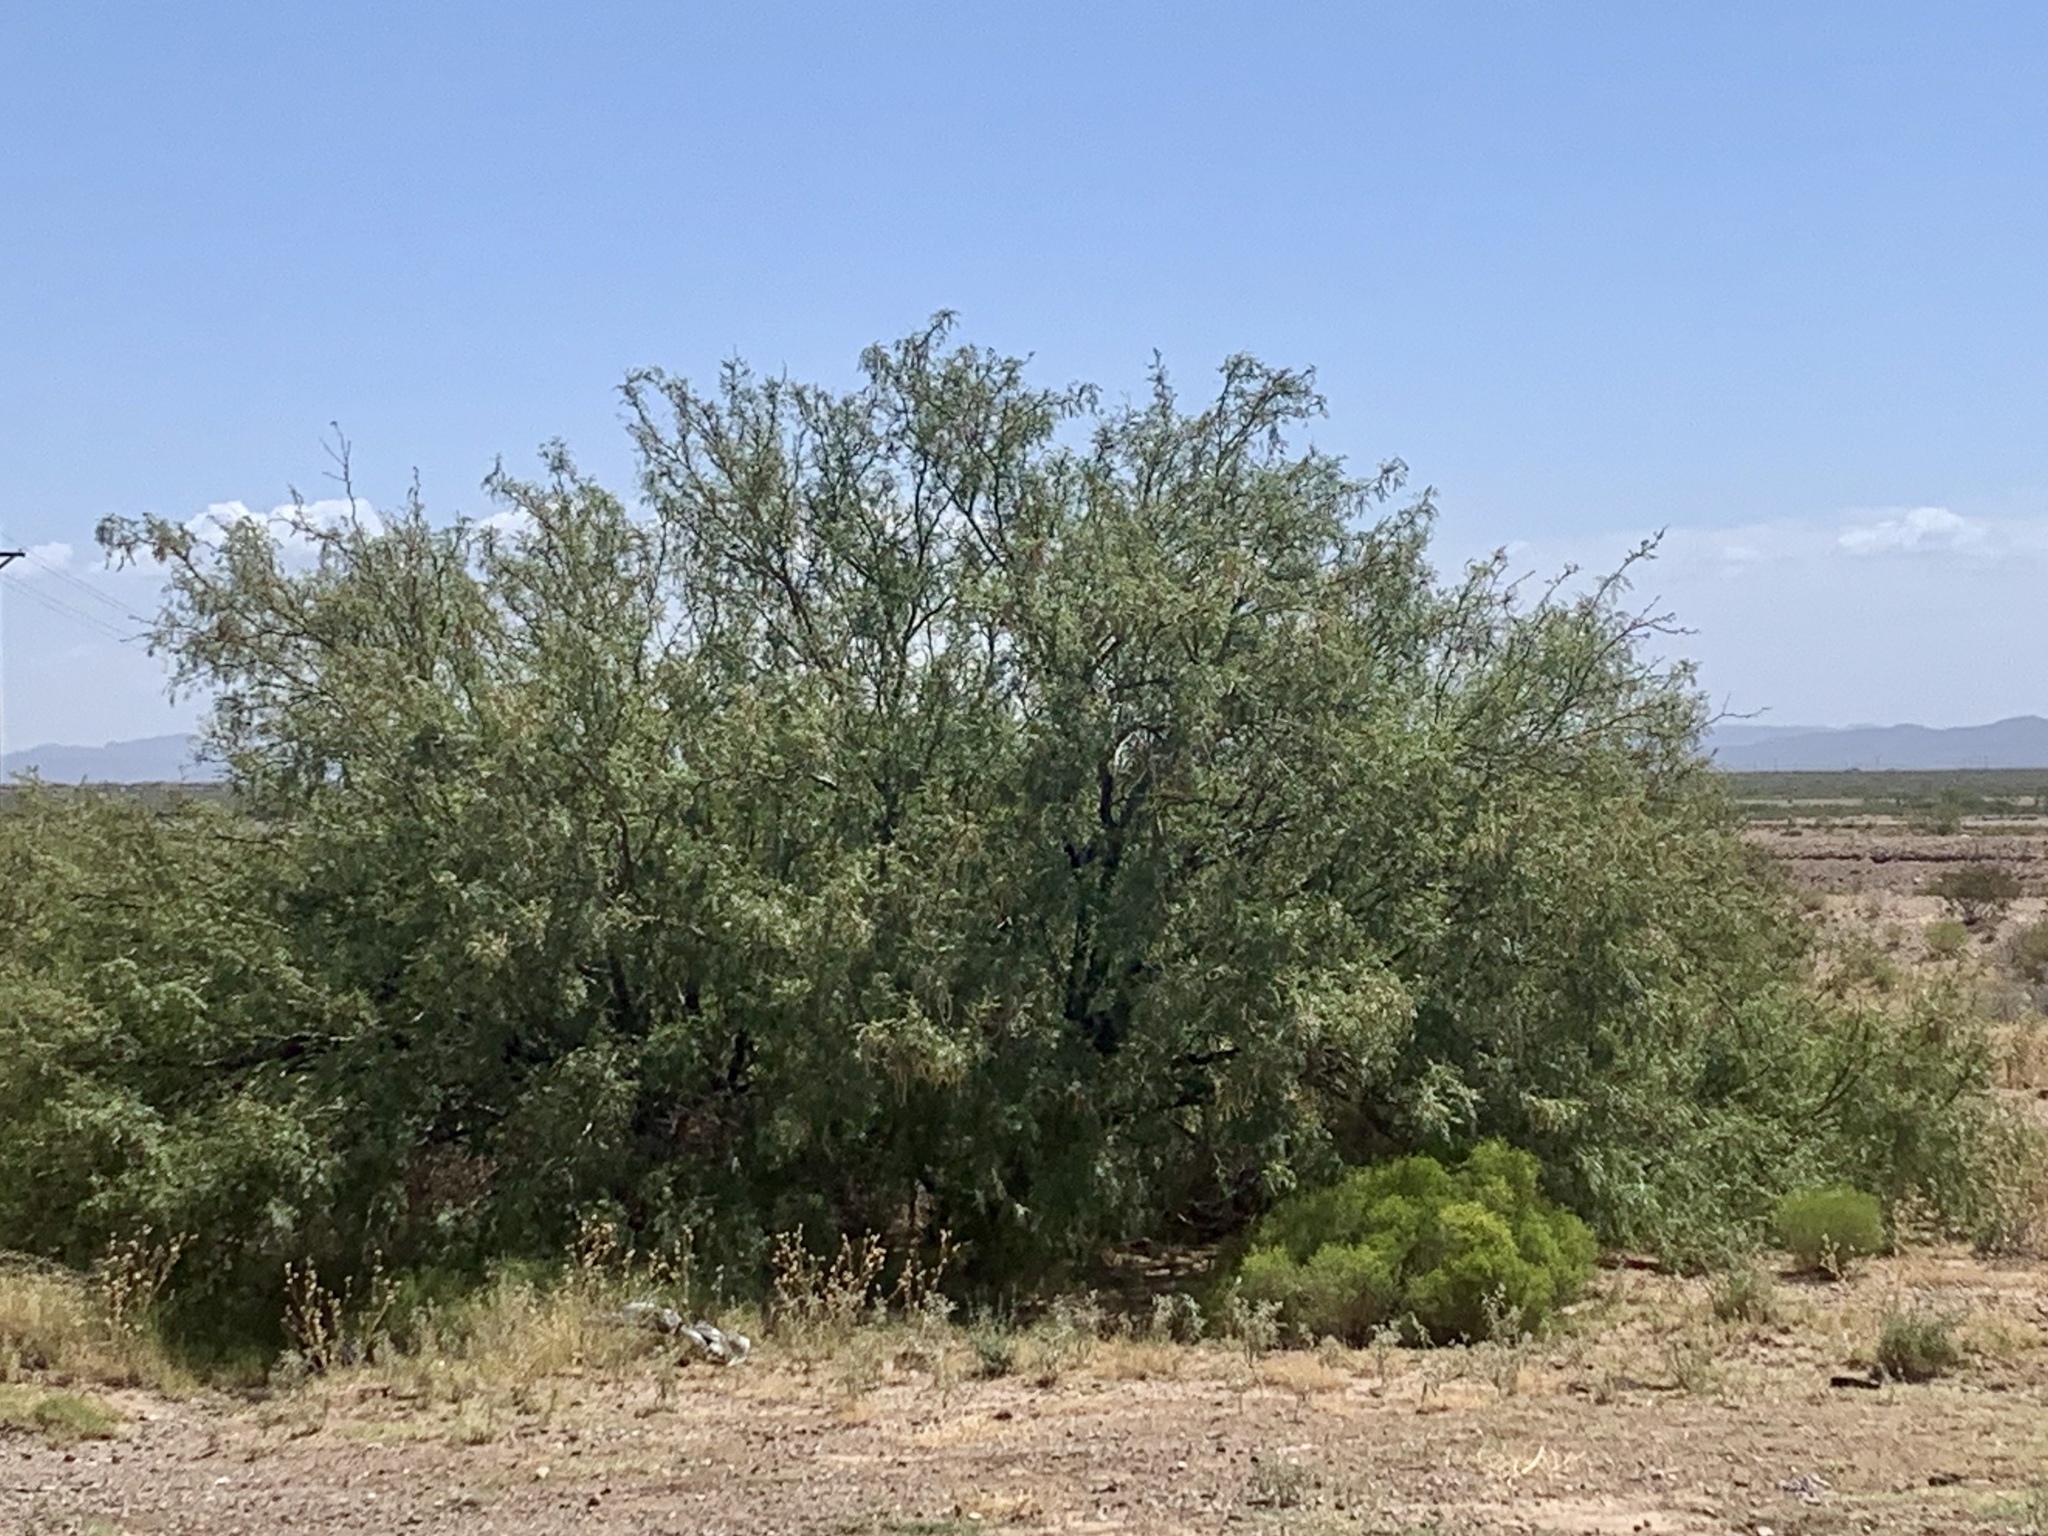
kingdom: Plantae
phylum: Tracheophyta
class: Magnoliopsida
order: Fabales
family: Fabaceae
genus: Prosopis
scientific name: Prosopis glandulosa
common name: Honey mesquite
